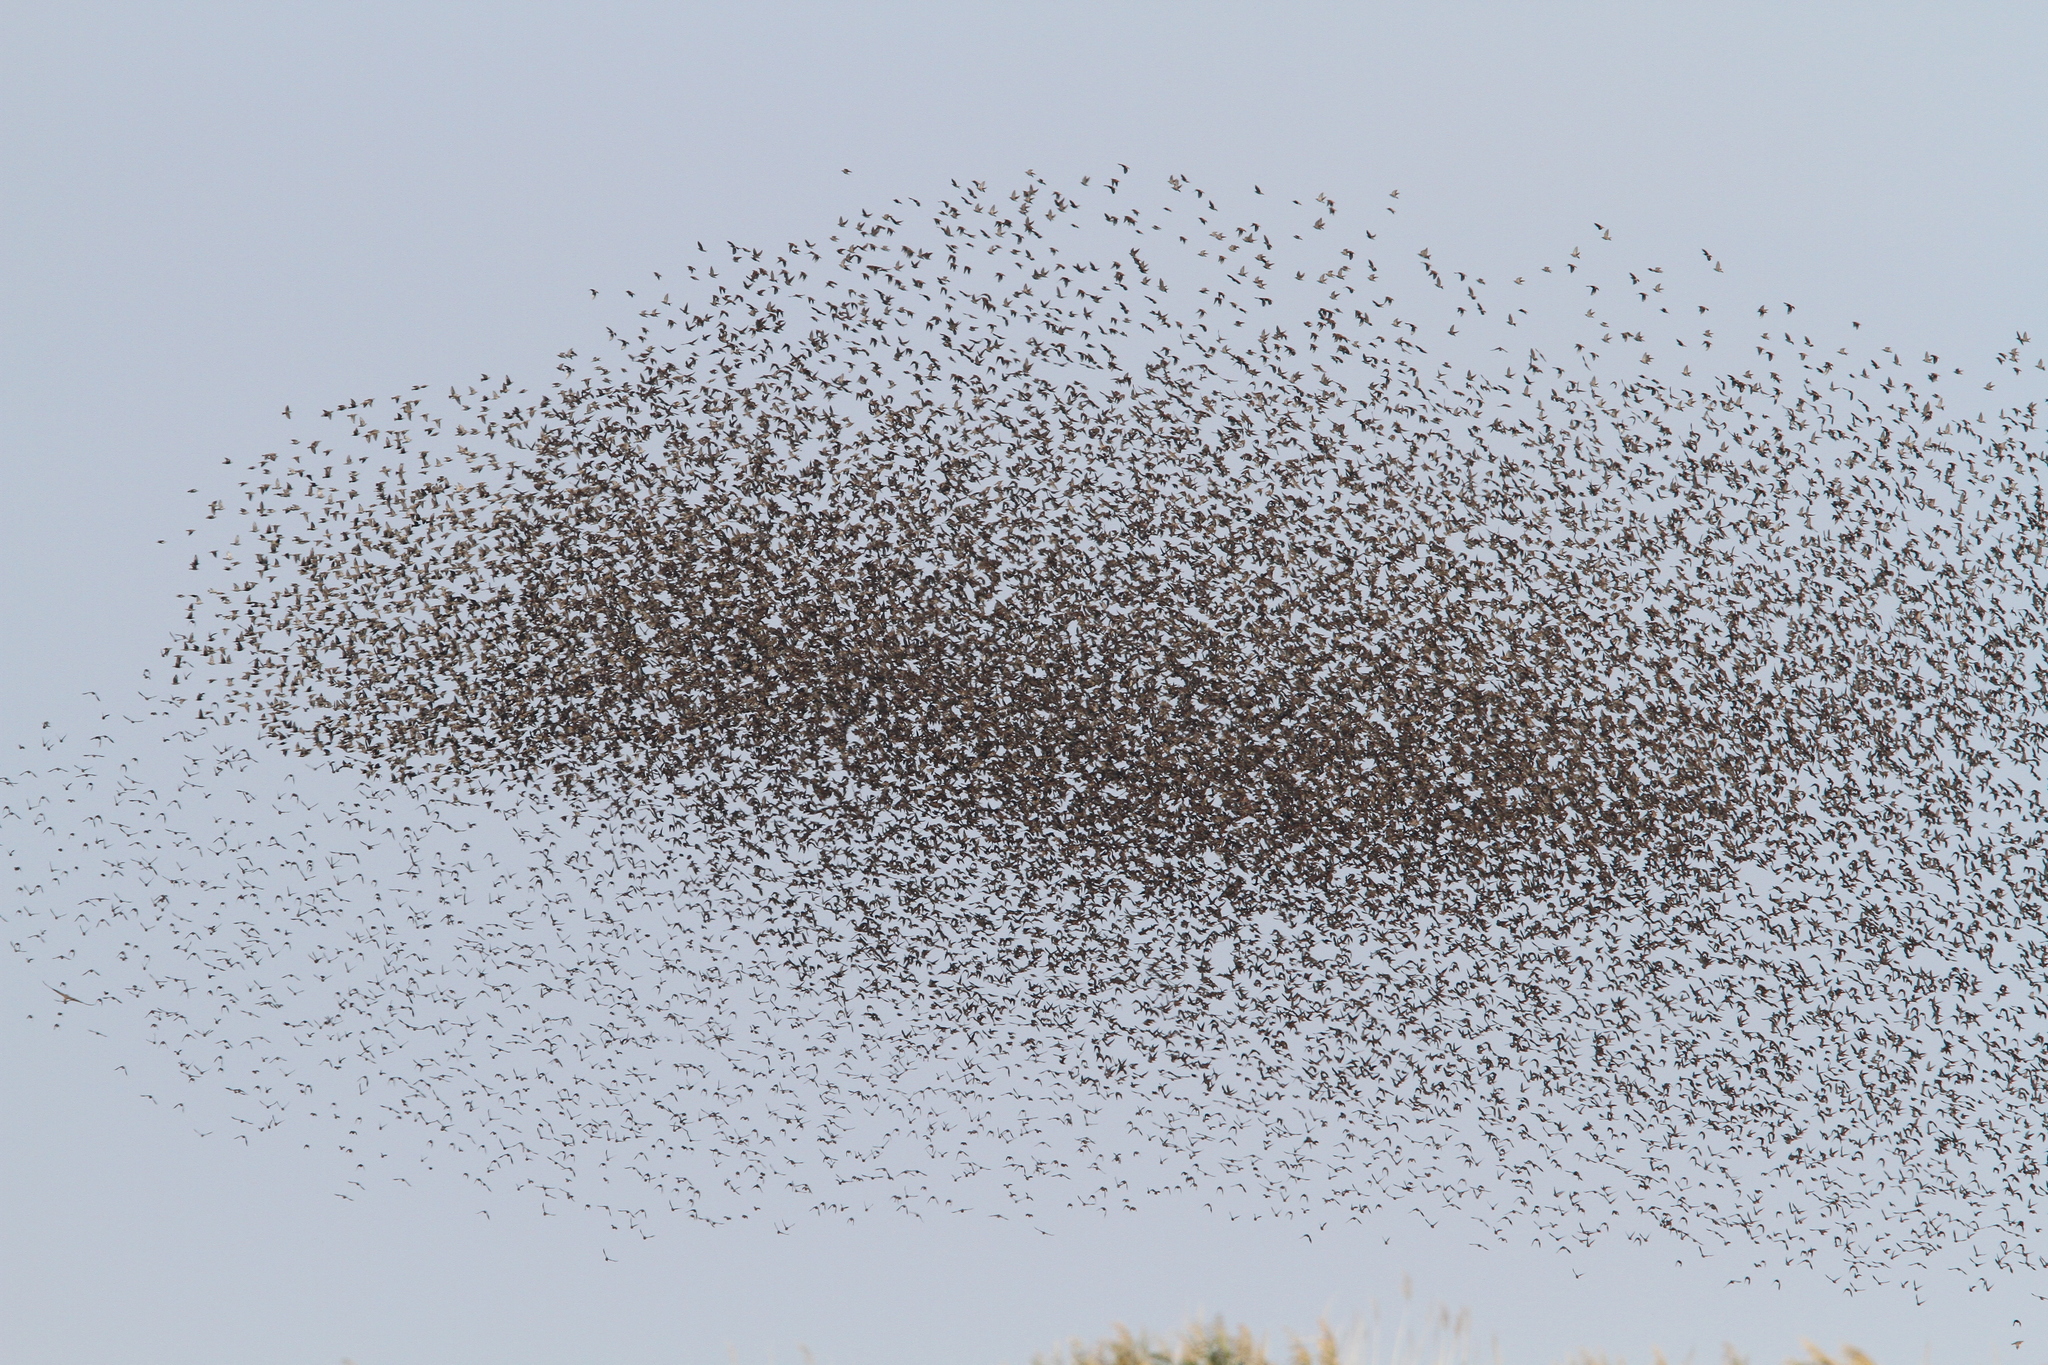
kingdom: Animalia
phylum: Chordata
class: Aves
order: Passeriformes
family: Sturnidae
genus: Sturnus
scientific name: Sturnus vulgaris
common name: Common starling
